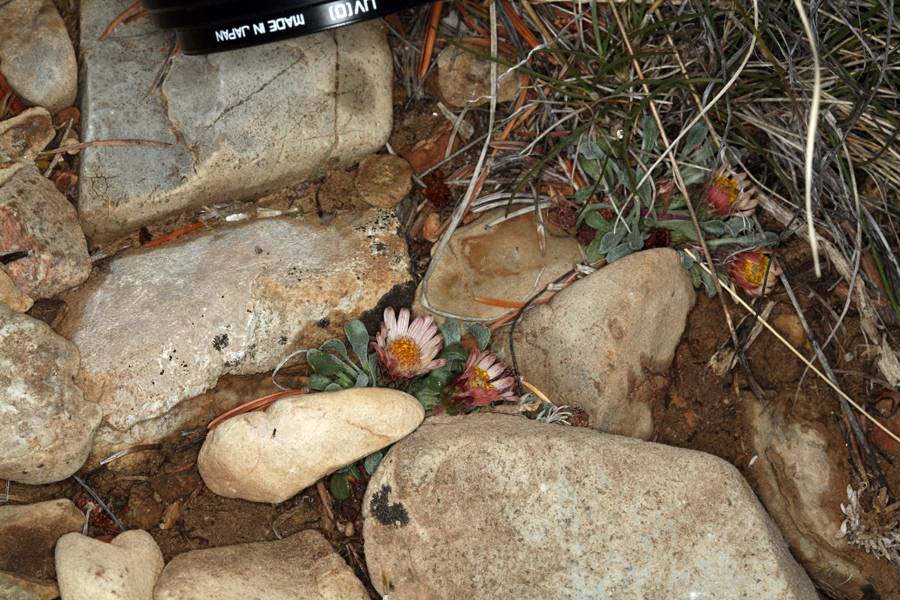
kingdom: Plantae
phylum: Tracheophyta
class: Magnoliopsida
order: Asterales
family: Asteraceae
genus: Townsendia
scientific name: Townsendia scapigera
